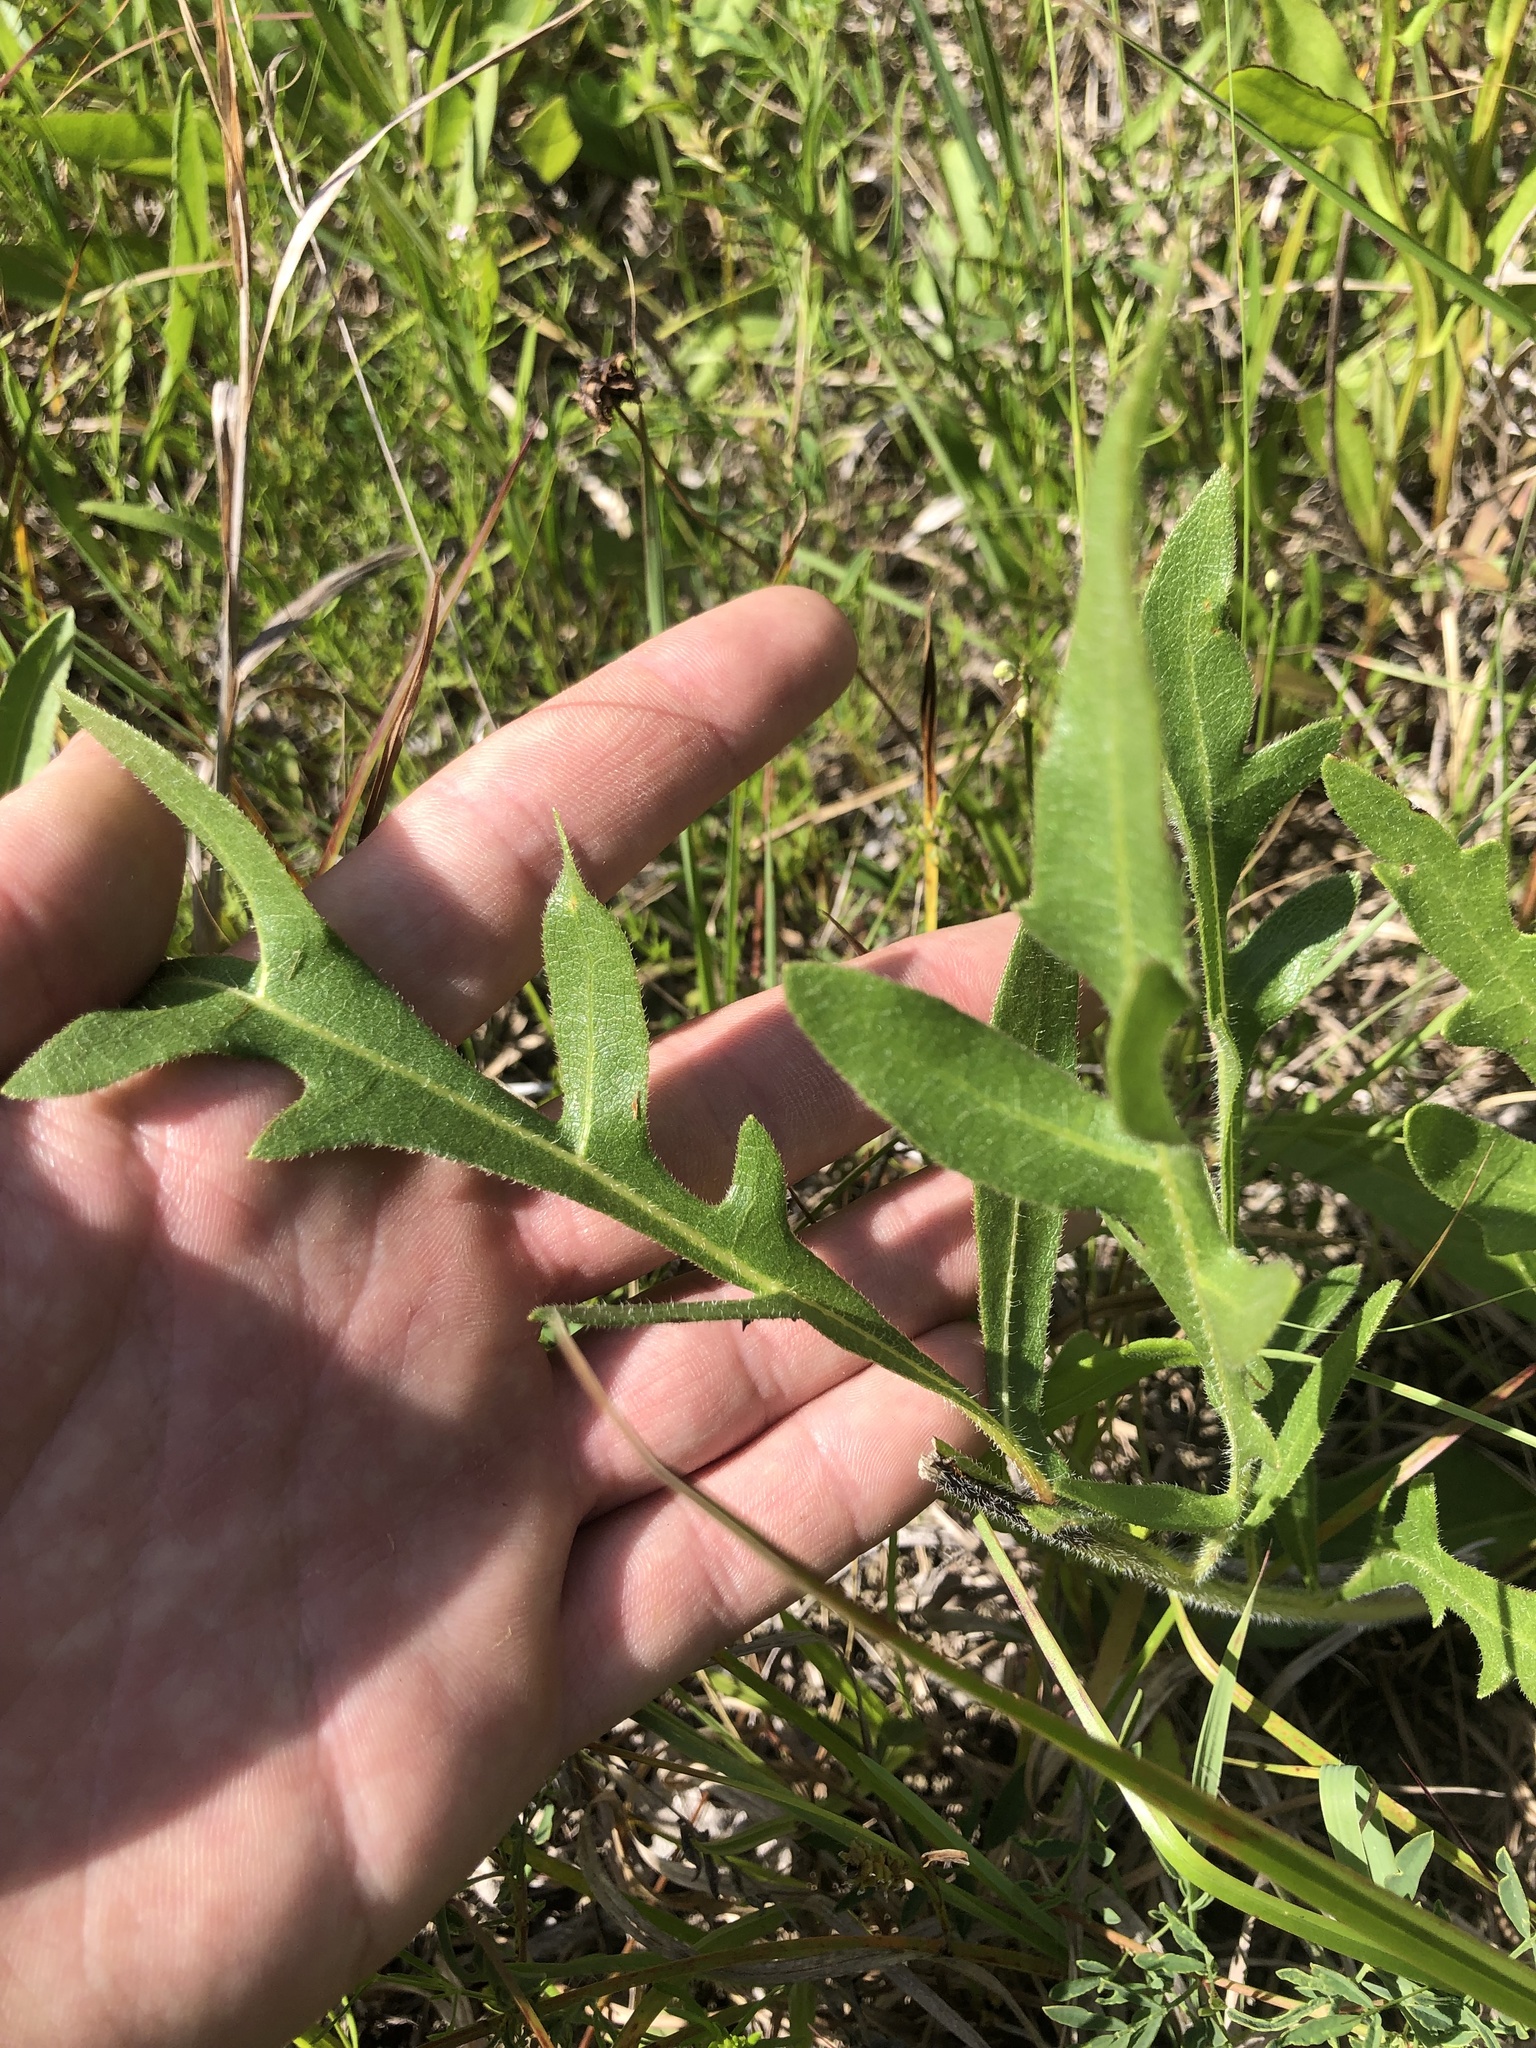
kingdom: Plantae
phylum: Tracheophyta
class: Magnoliopsida
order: Asterales
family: Asteraceae
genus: Silphium
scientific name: Silphium laciniatum
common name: Polarplant
